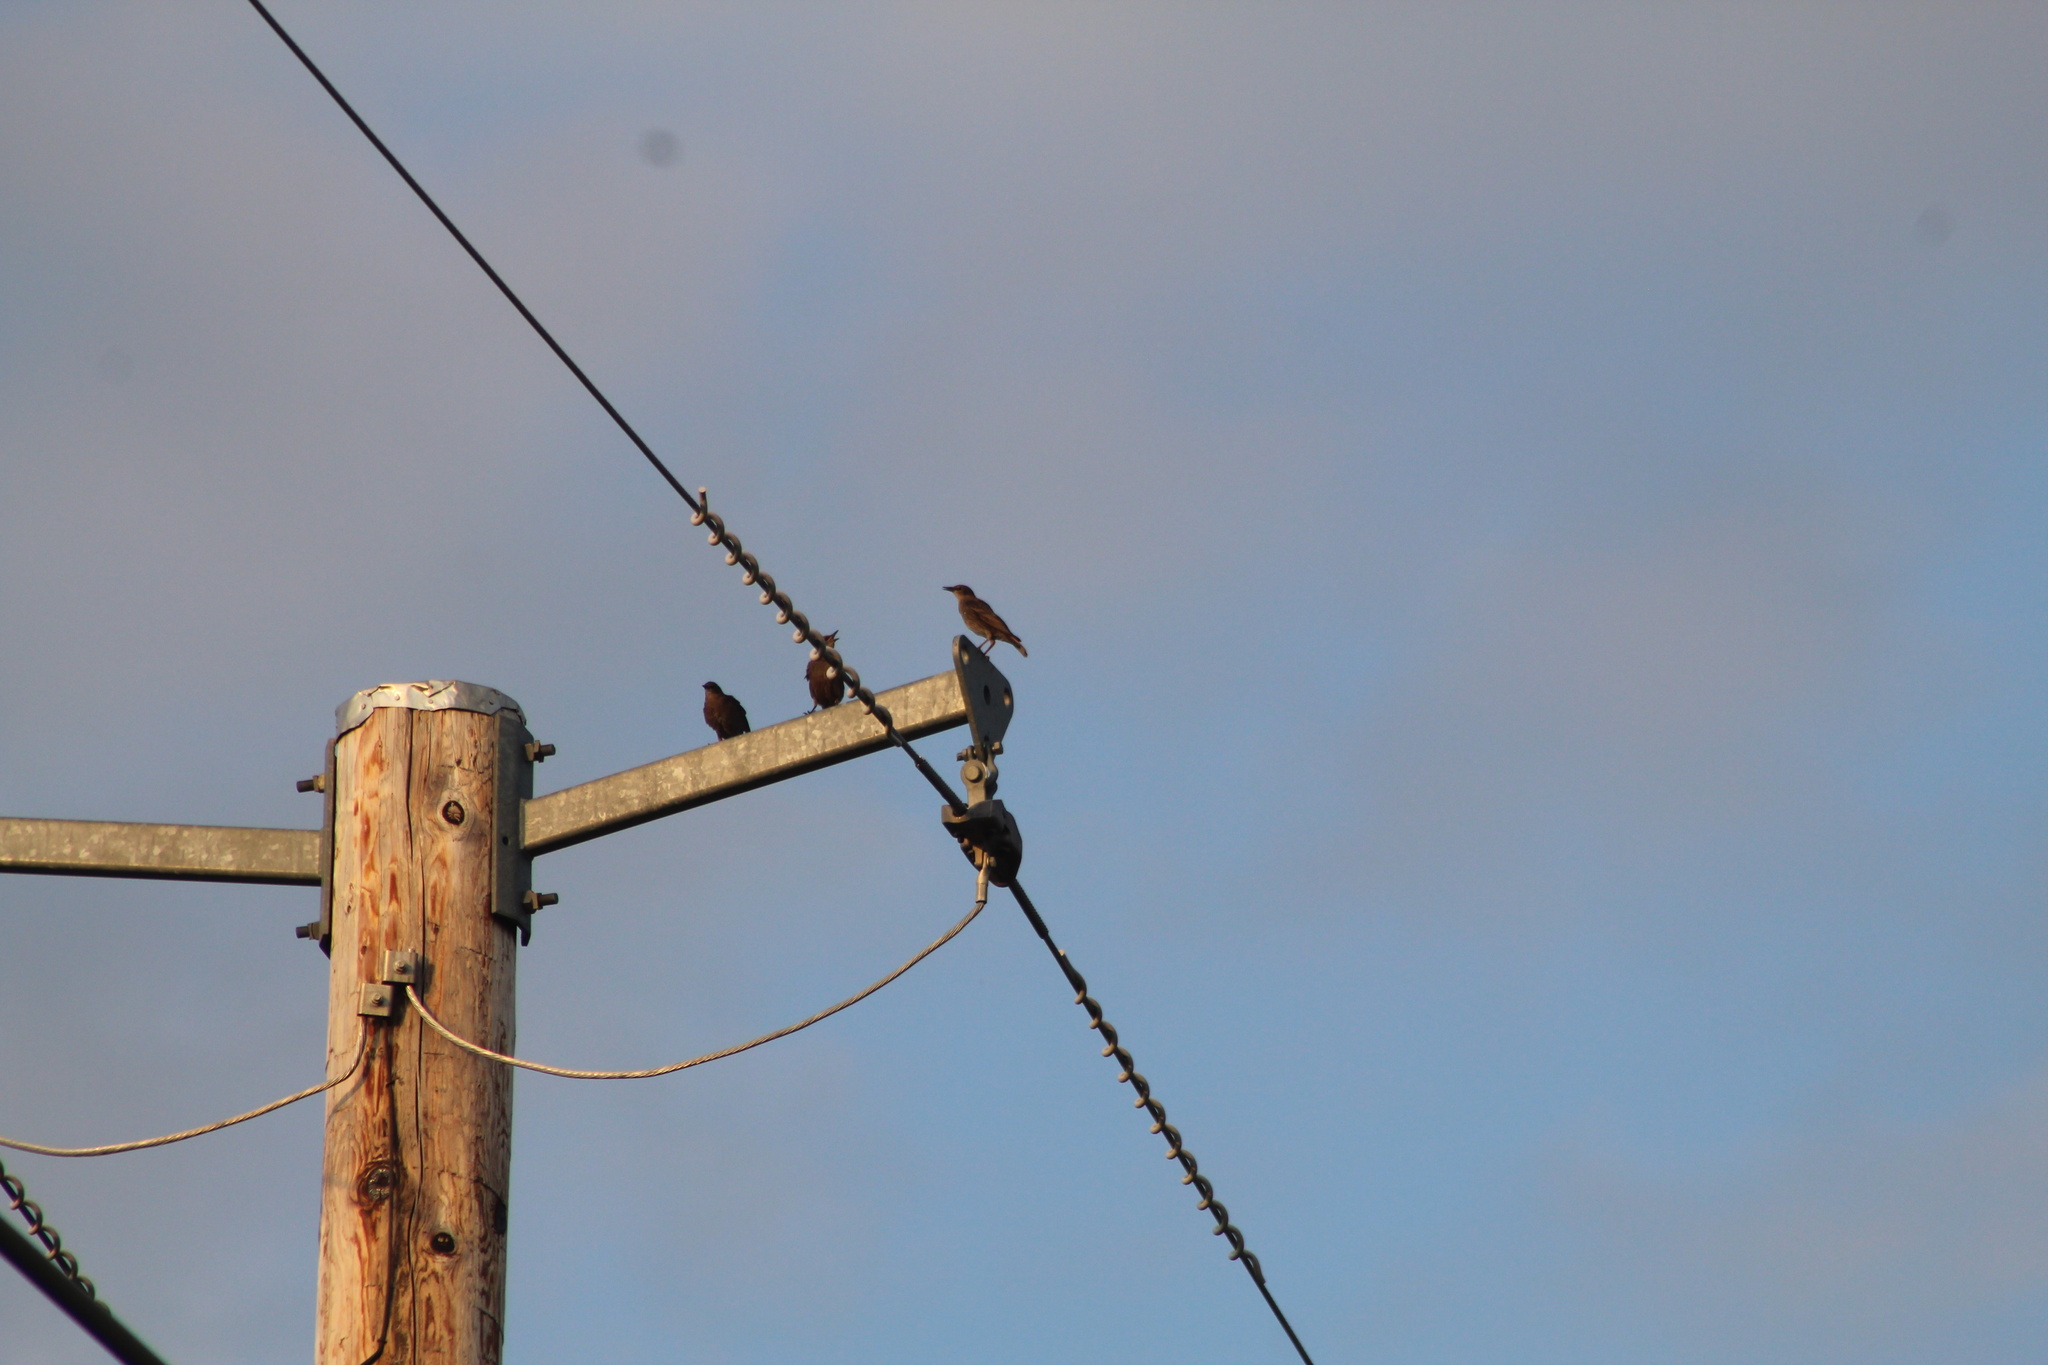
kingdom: Animalia
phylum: Chordata
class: Aves
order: Passeriformes
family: Sturnidae
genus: Sturnus
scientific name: Sturnus vulgaris
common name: Common starling
